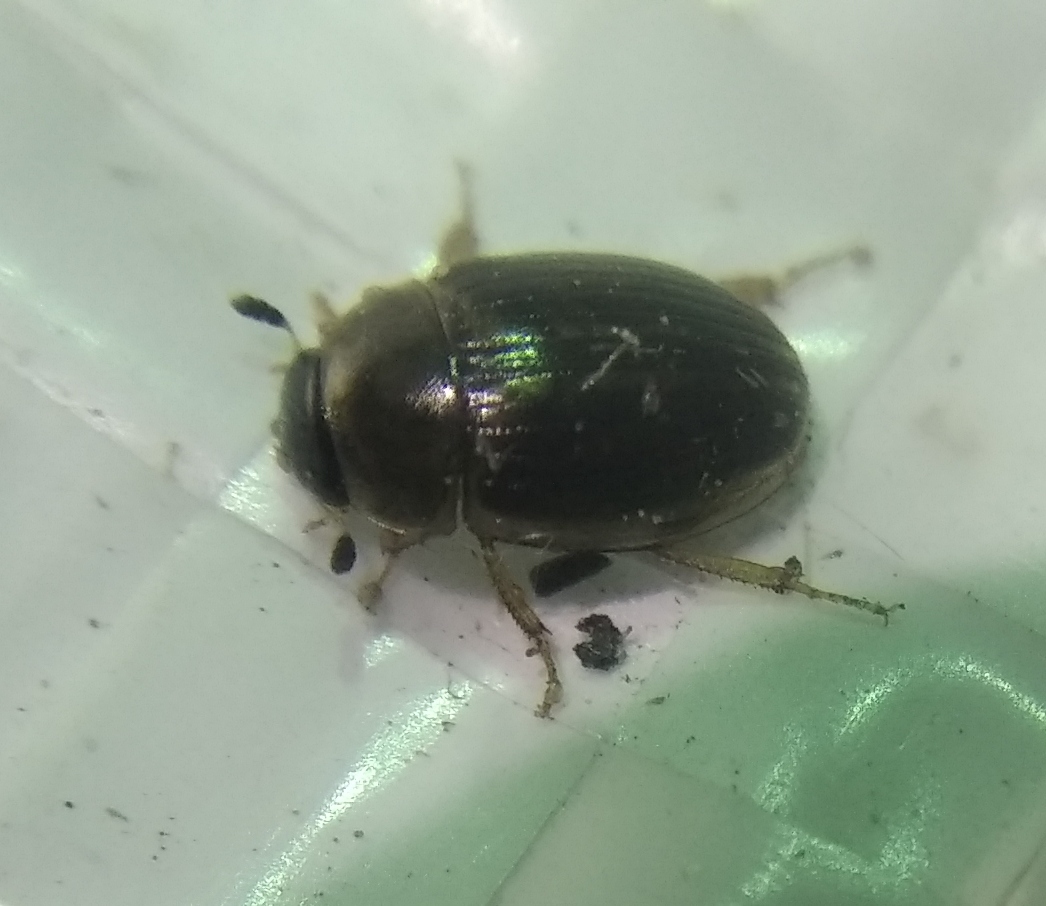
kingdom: Animalia
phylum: Arthropoda
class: Insecta
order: Coleoptera
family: Hydrophilidae
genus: Cercyon
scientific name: Cercyon laminatus
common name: Water scavenger beetle
